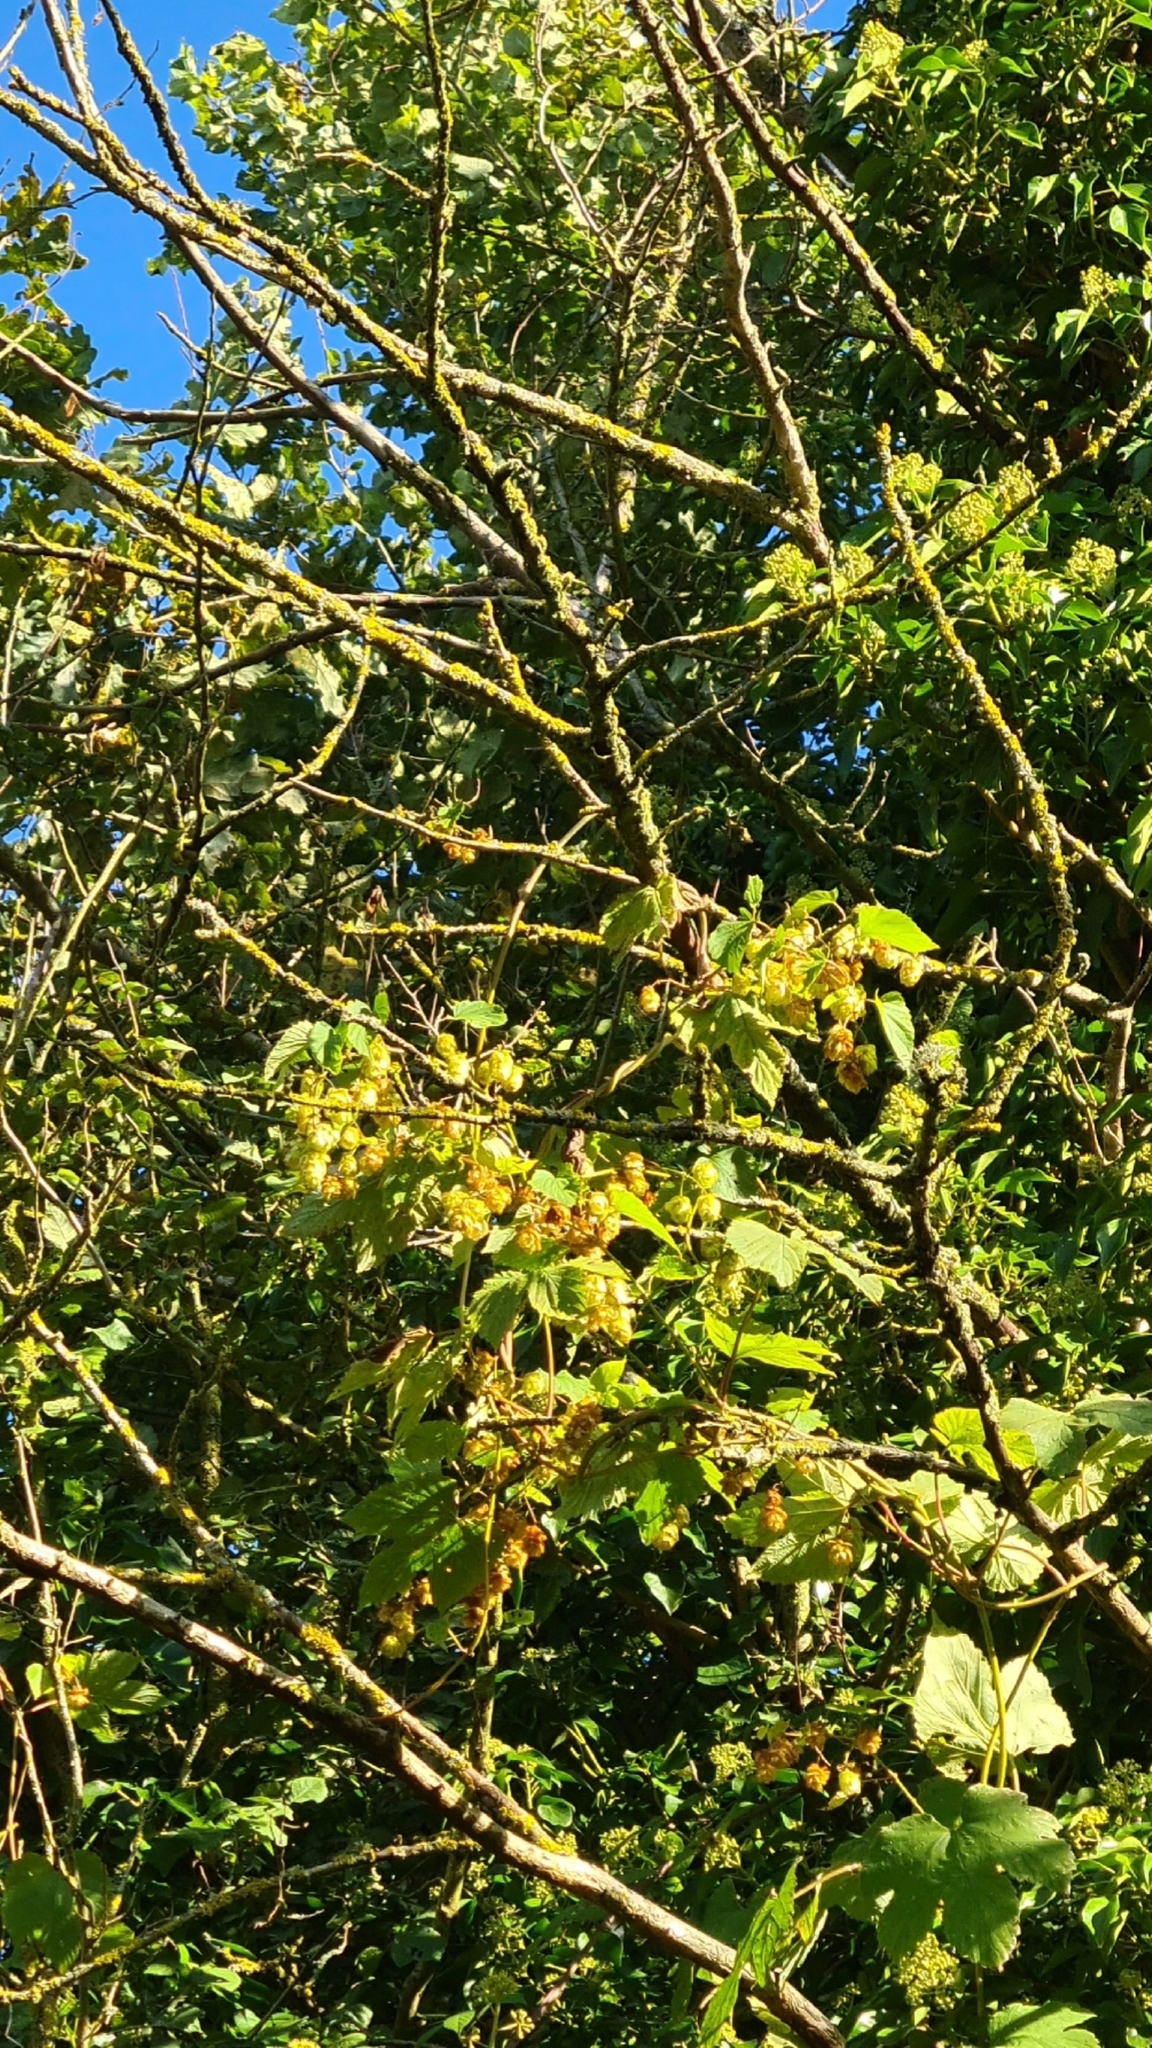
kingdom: Plantae
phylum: Tracheophyta
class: Magnoliopsida
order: Rosales
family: Cannabaceae
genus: Humulus
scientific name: Humulus lupulus
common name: Hop
